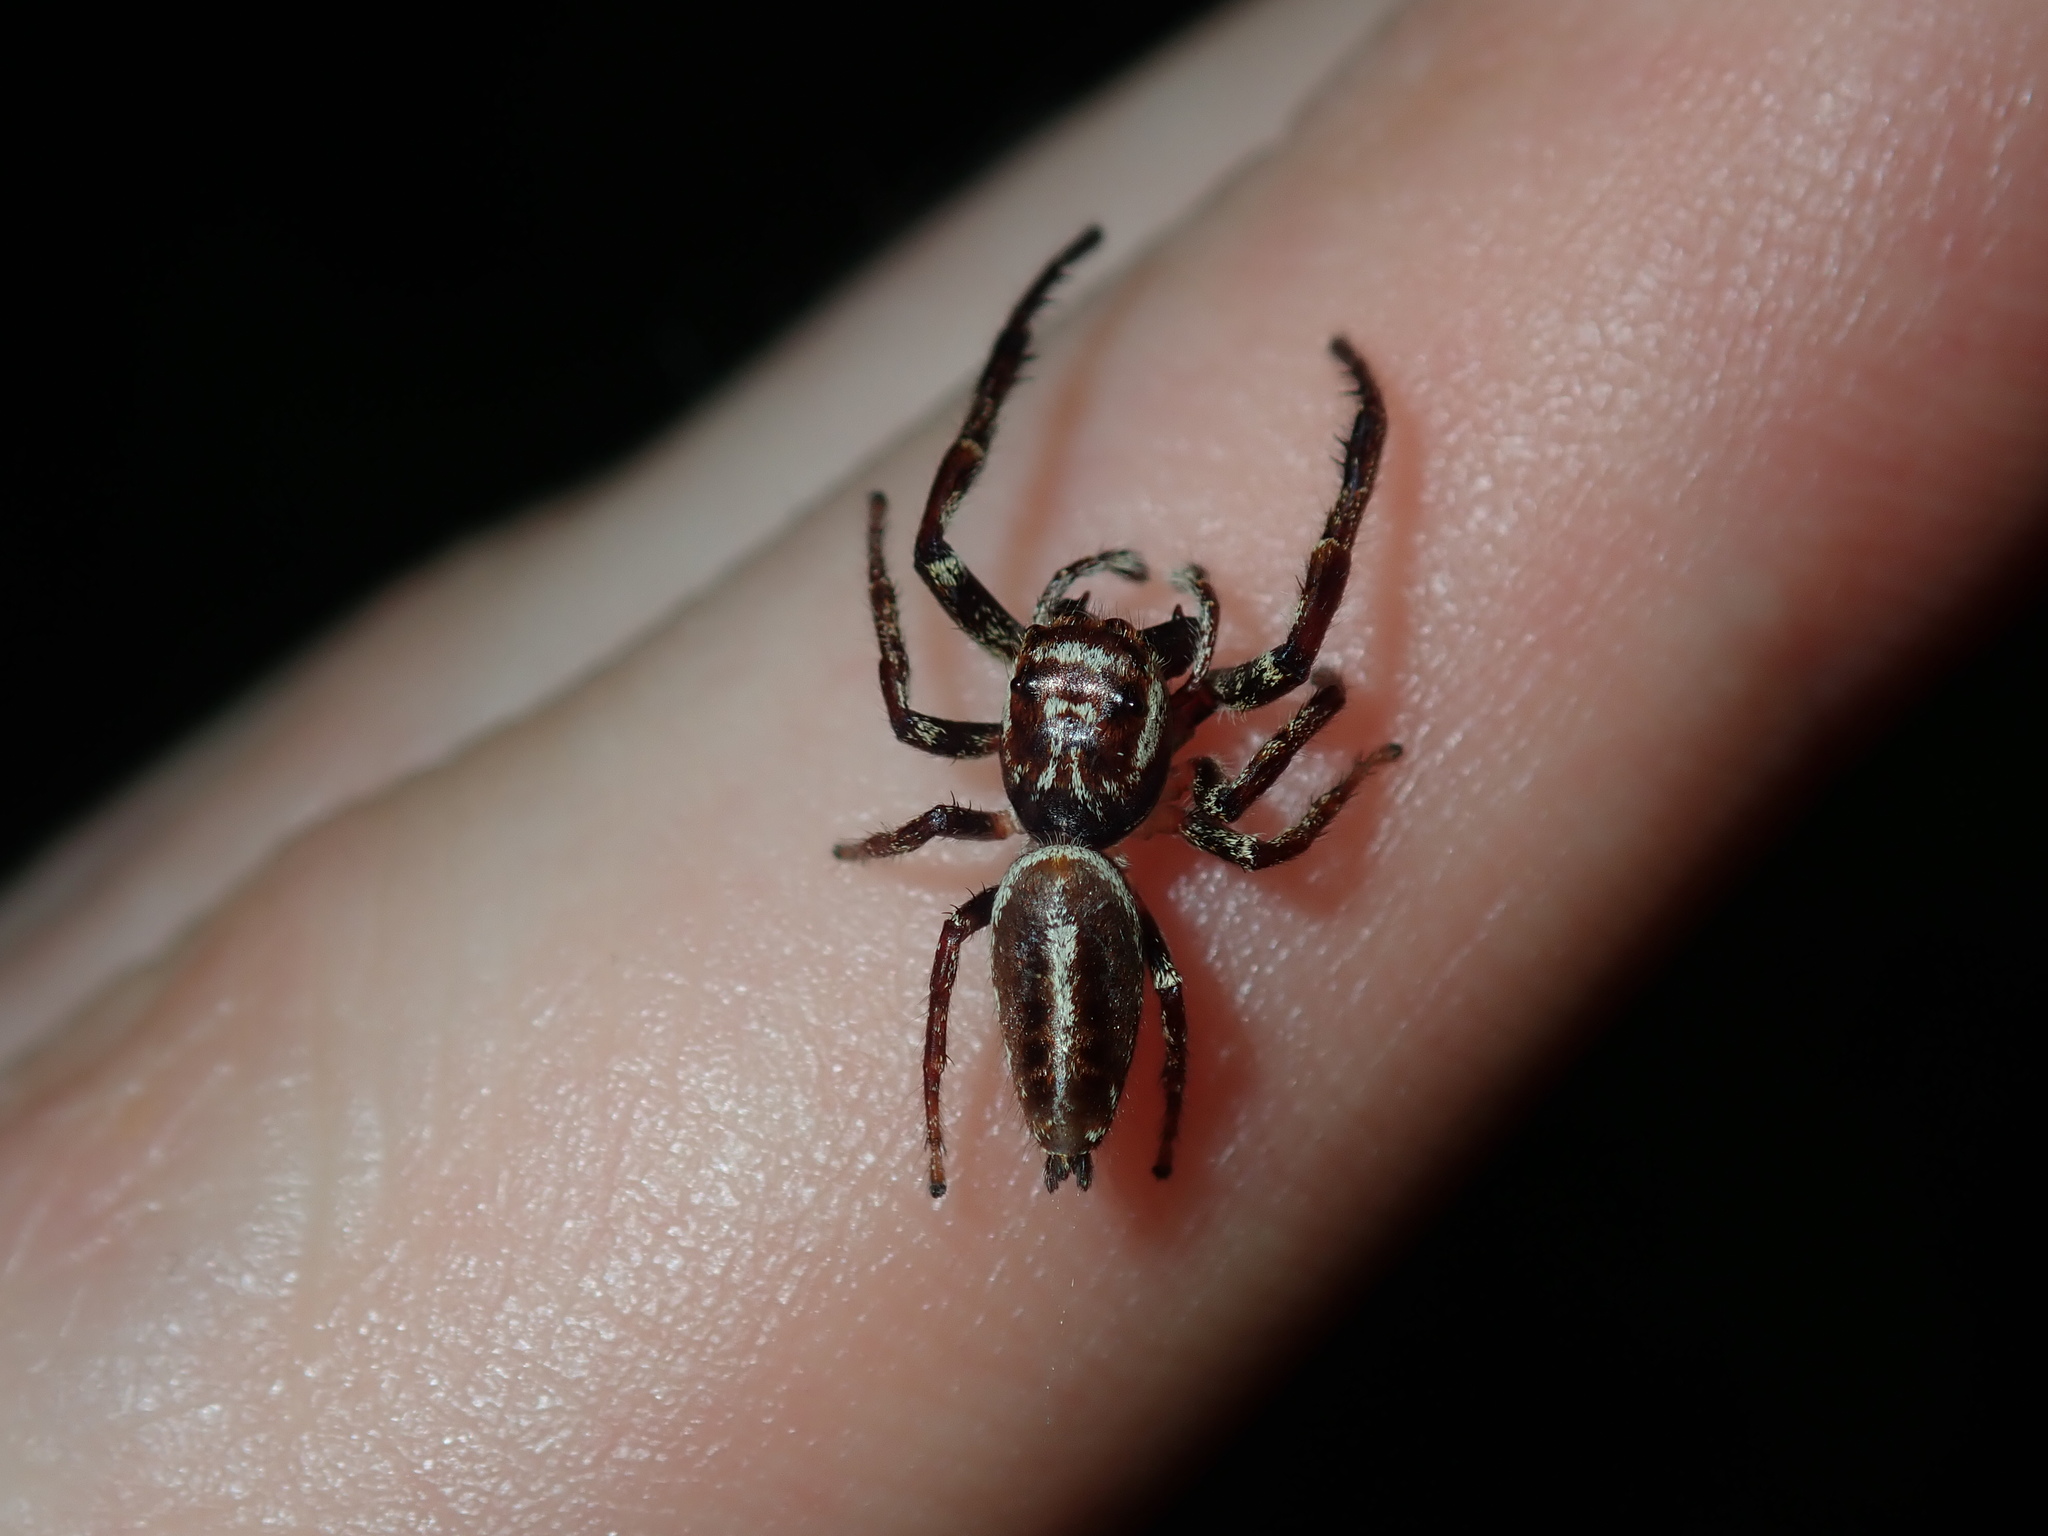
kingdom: Animalia
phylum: Arthropoda
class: Arachnida
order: Araneae
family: Salticidae
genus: Opisthoncus
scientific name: Opisthoncus serratofasciatus
